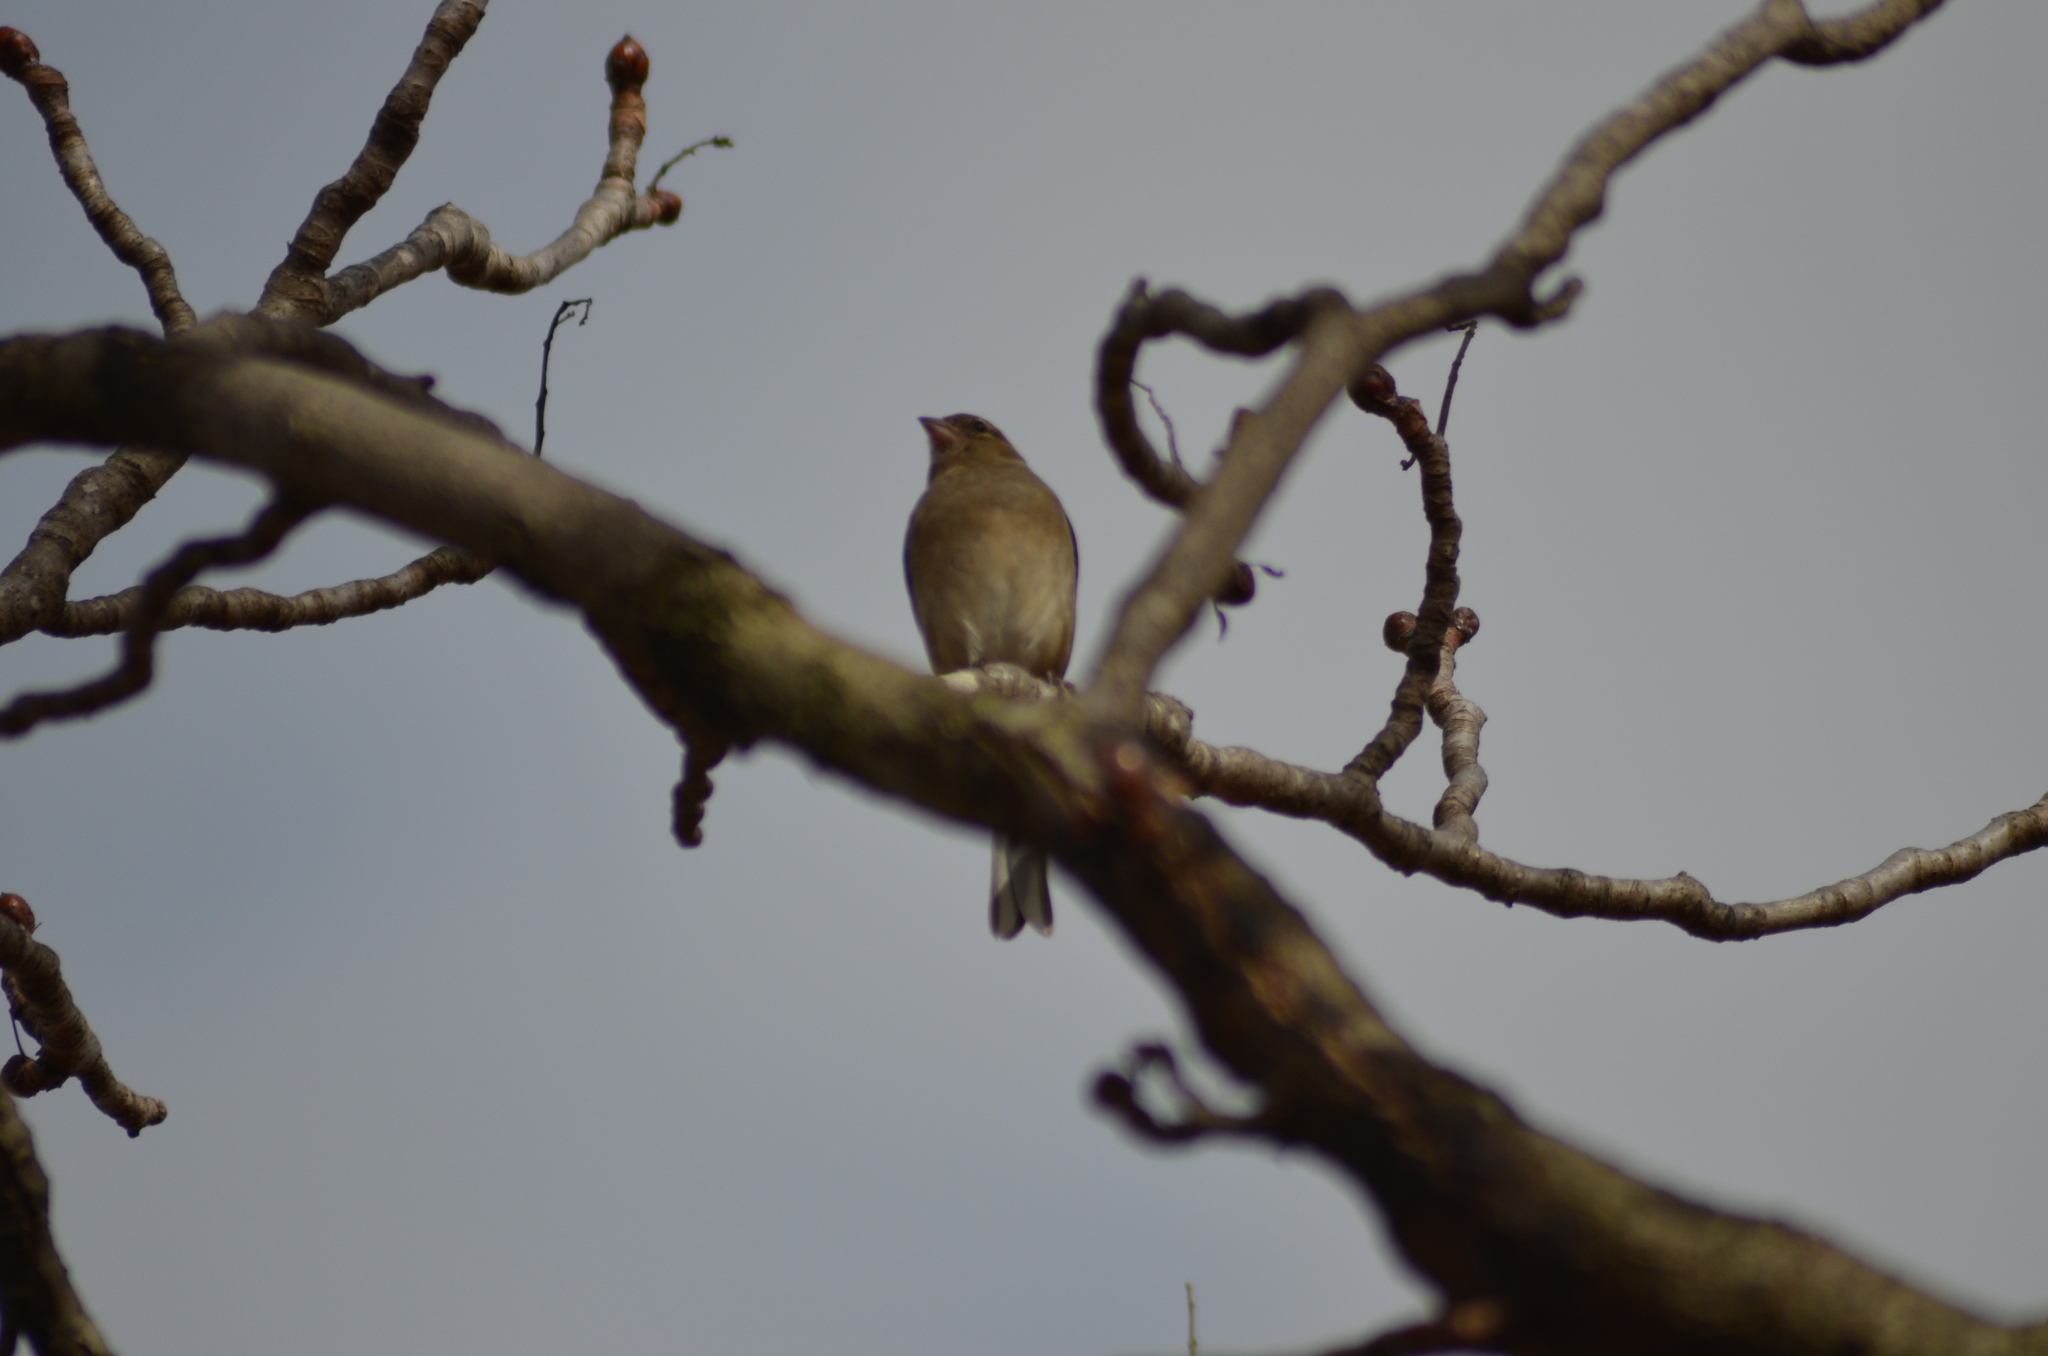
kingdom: Animalia
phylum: Chordata
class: Aves
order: Passeriformes
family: Fringillidae
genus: Fringilla
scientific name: Fringilla coelebs
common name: Common chaffinch
